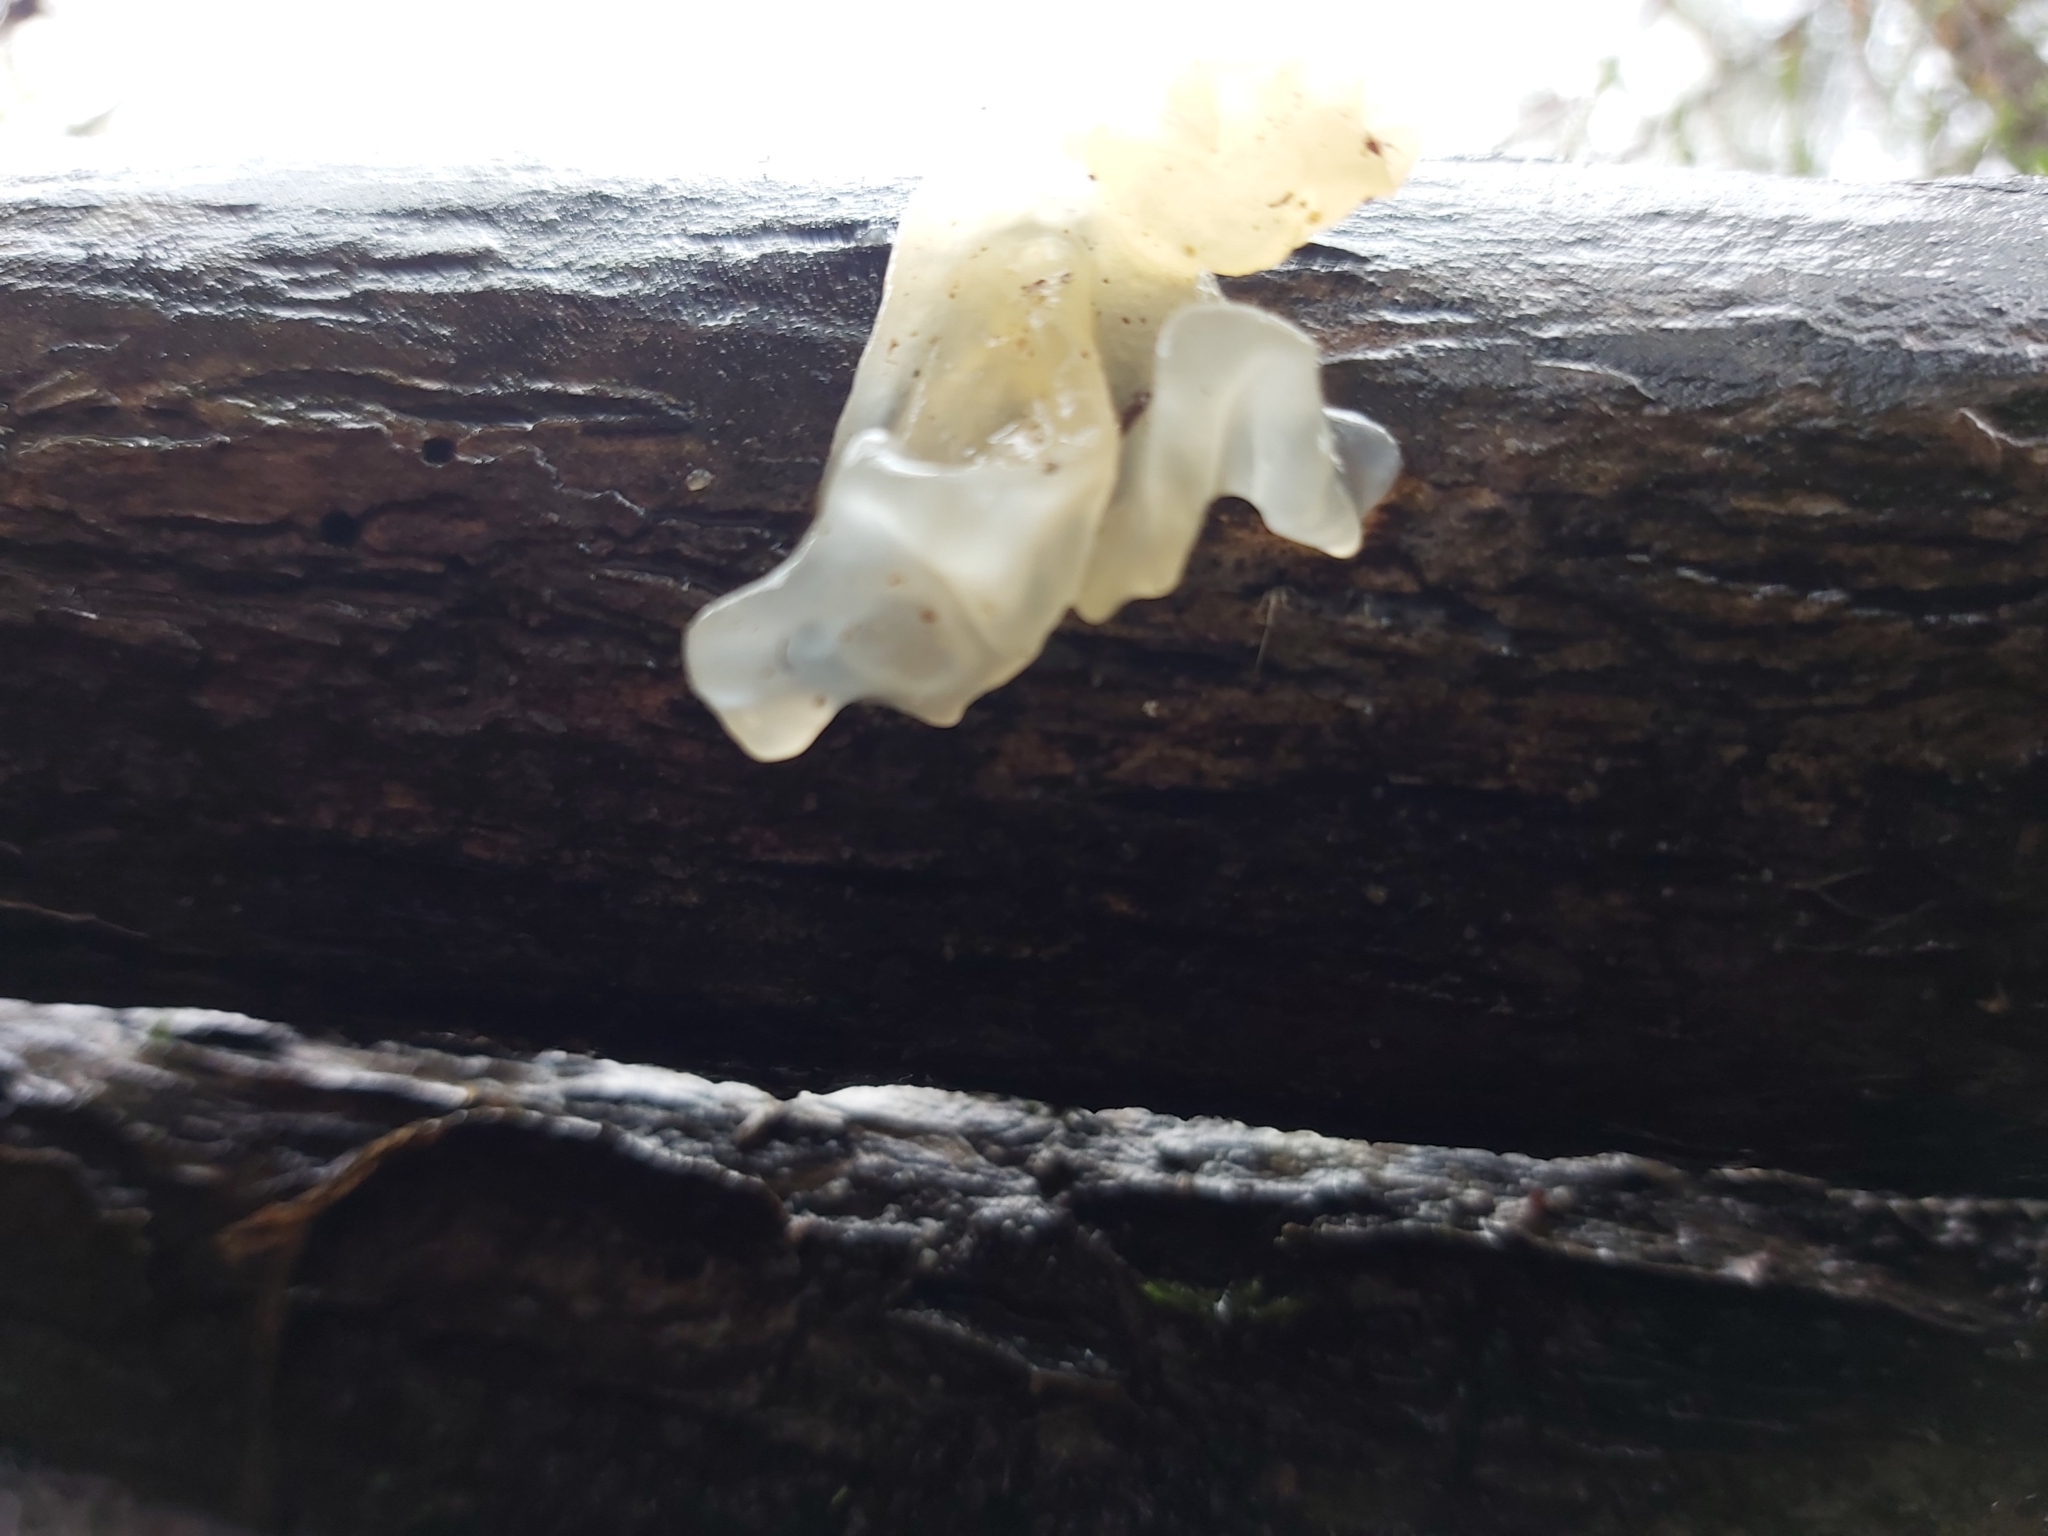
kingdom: Fungi
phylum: Basidiomycota
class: Tremellomycetes
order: Tremellales
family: Tremellaceae
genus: Tremella
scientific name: Tremella fuciformis
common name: Snow fungus
